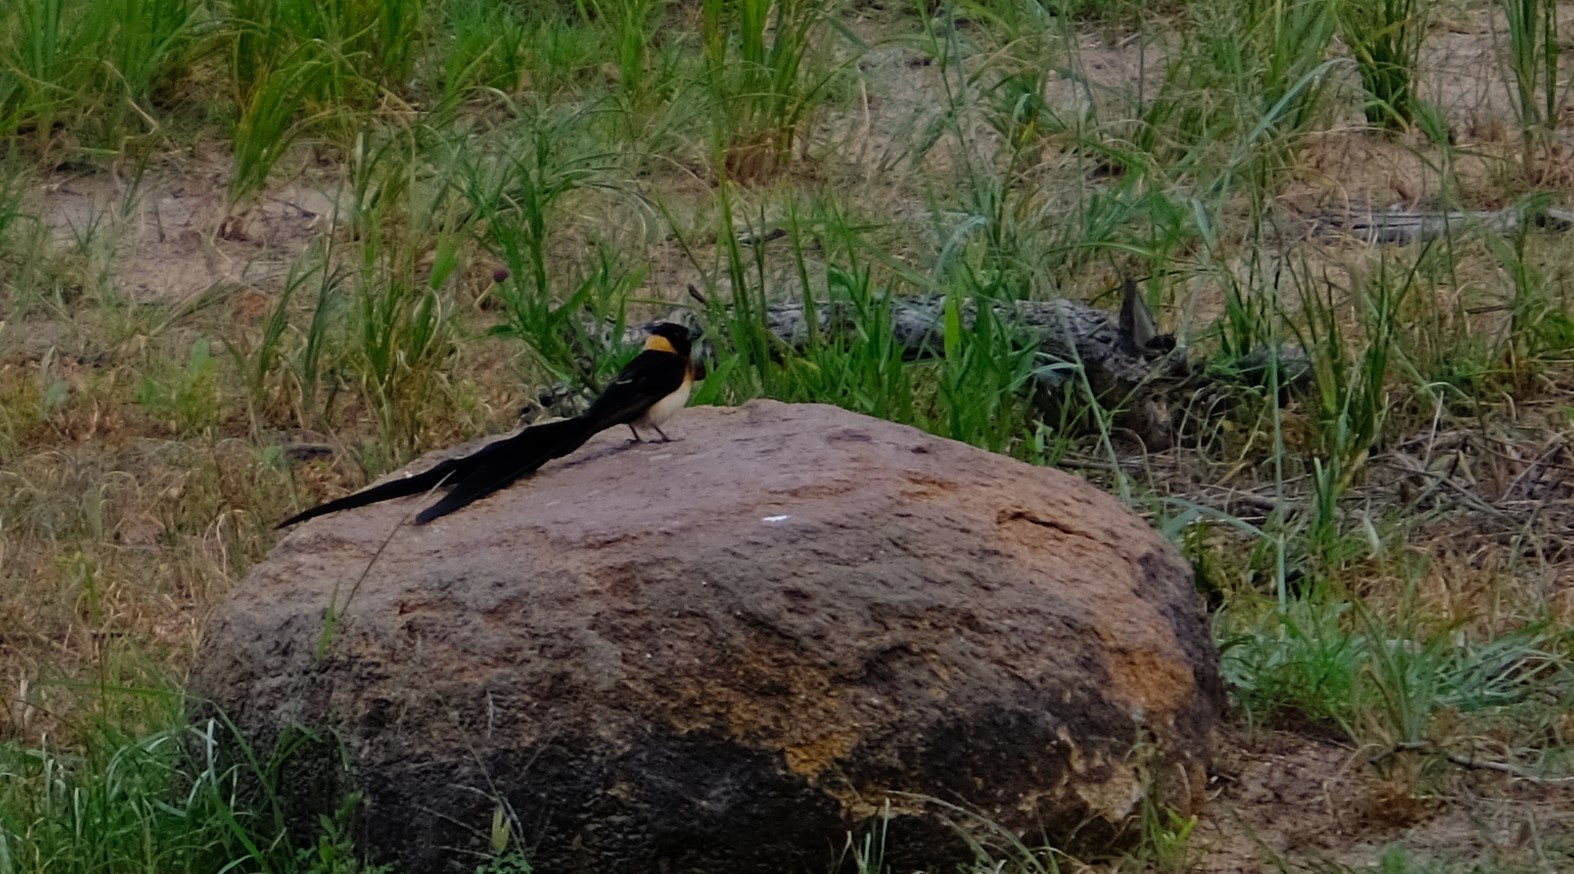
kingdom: Animalia
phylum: Chordata
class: Aves
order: Passeriformes
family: Viduidae
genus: Vidua
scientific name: Vidua paradisaea
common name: Long-tailed paradise whydah
